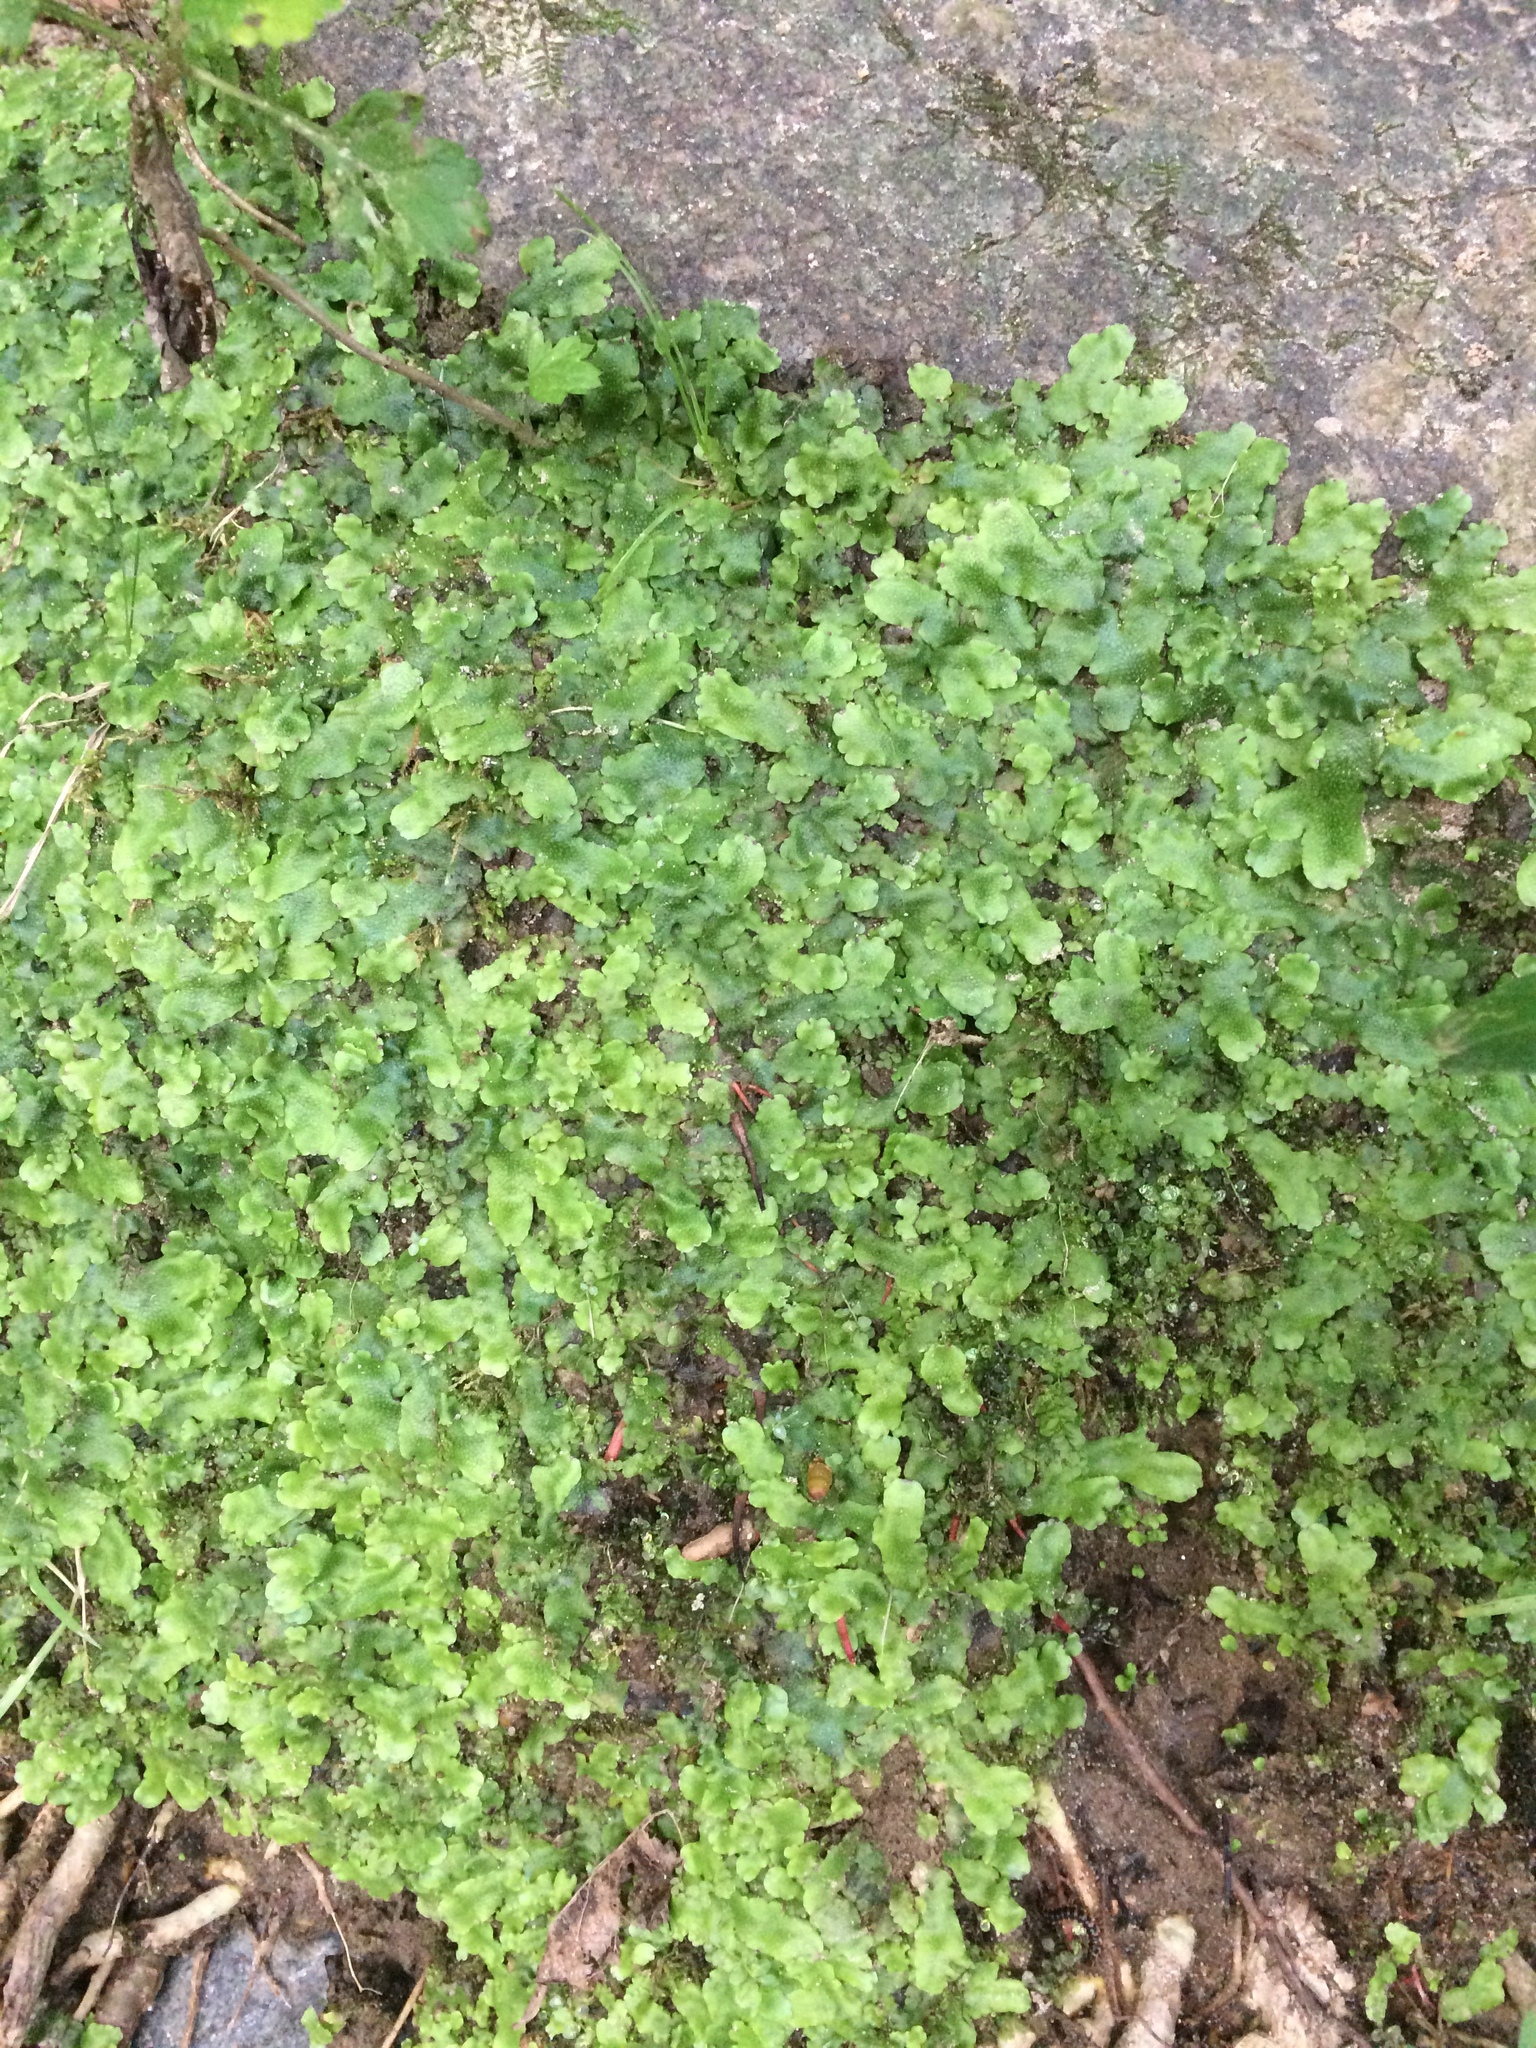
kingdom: Plantae
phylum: Marchantiophyta
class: Marchantiopsida
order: Marchantiales
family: Conocephalaceae
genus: Conocephalum
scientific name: Conocephalum salebrosum
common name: Cat-tongue liverwort
